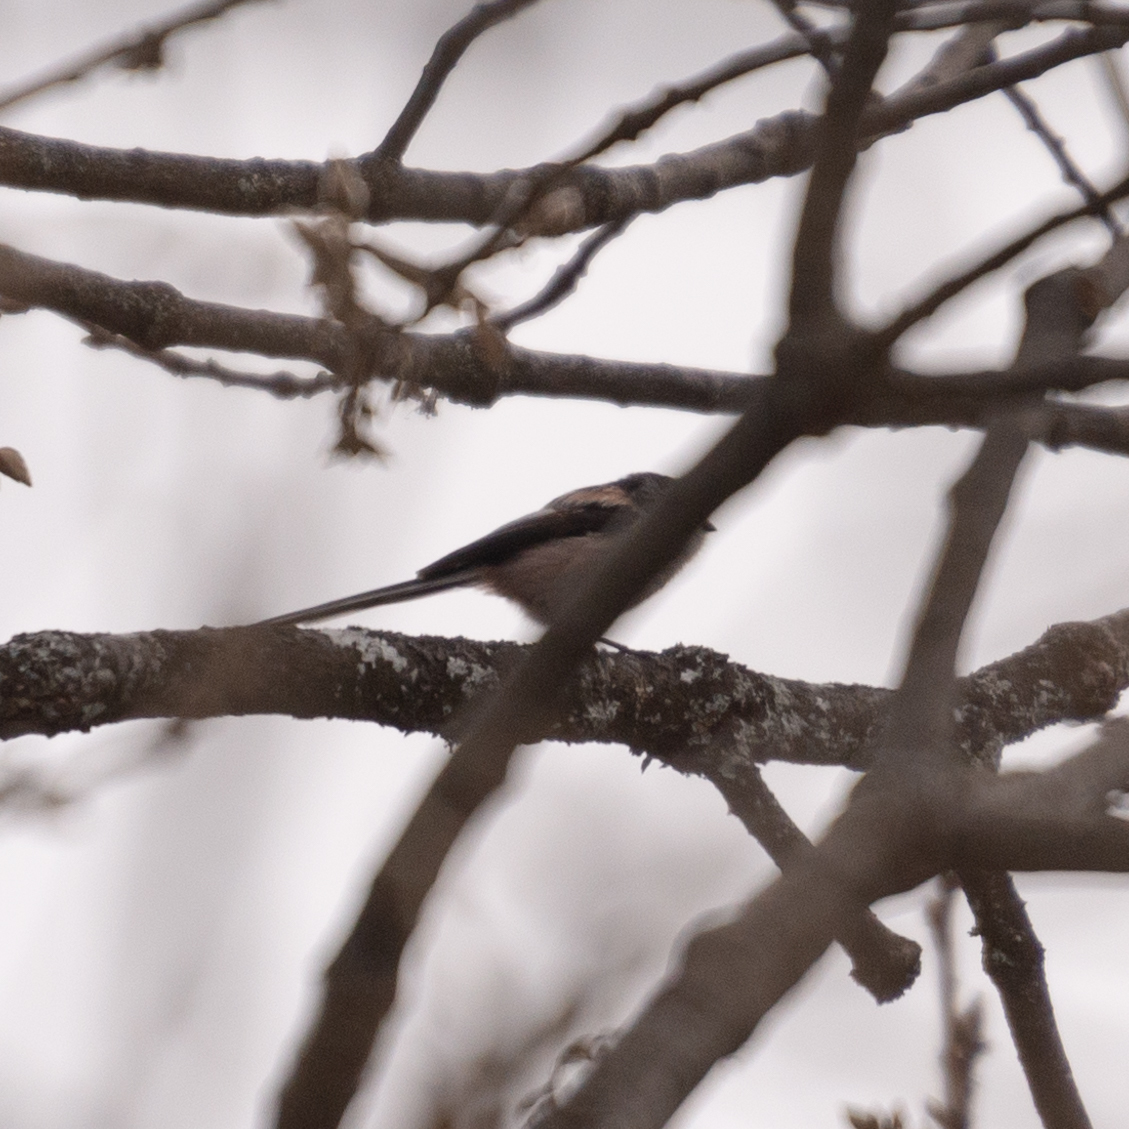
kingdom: Animalia
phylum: Chordata
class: Aves
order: Passeriformes
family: Aegithalidae
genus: Aegithalos
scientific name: Aegithalos caudatus
